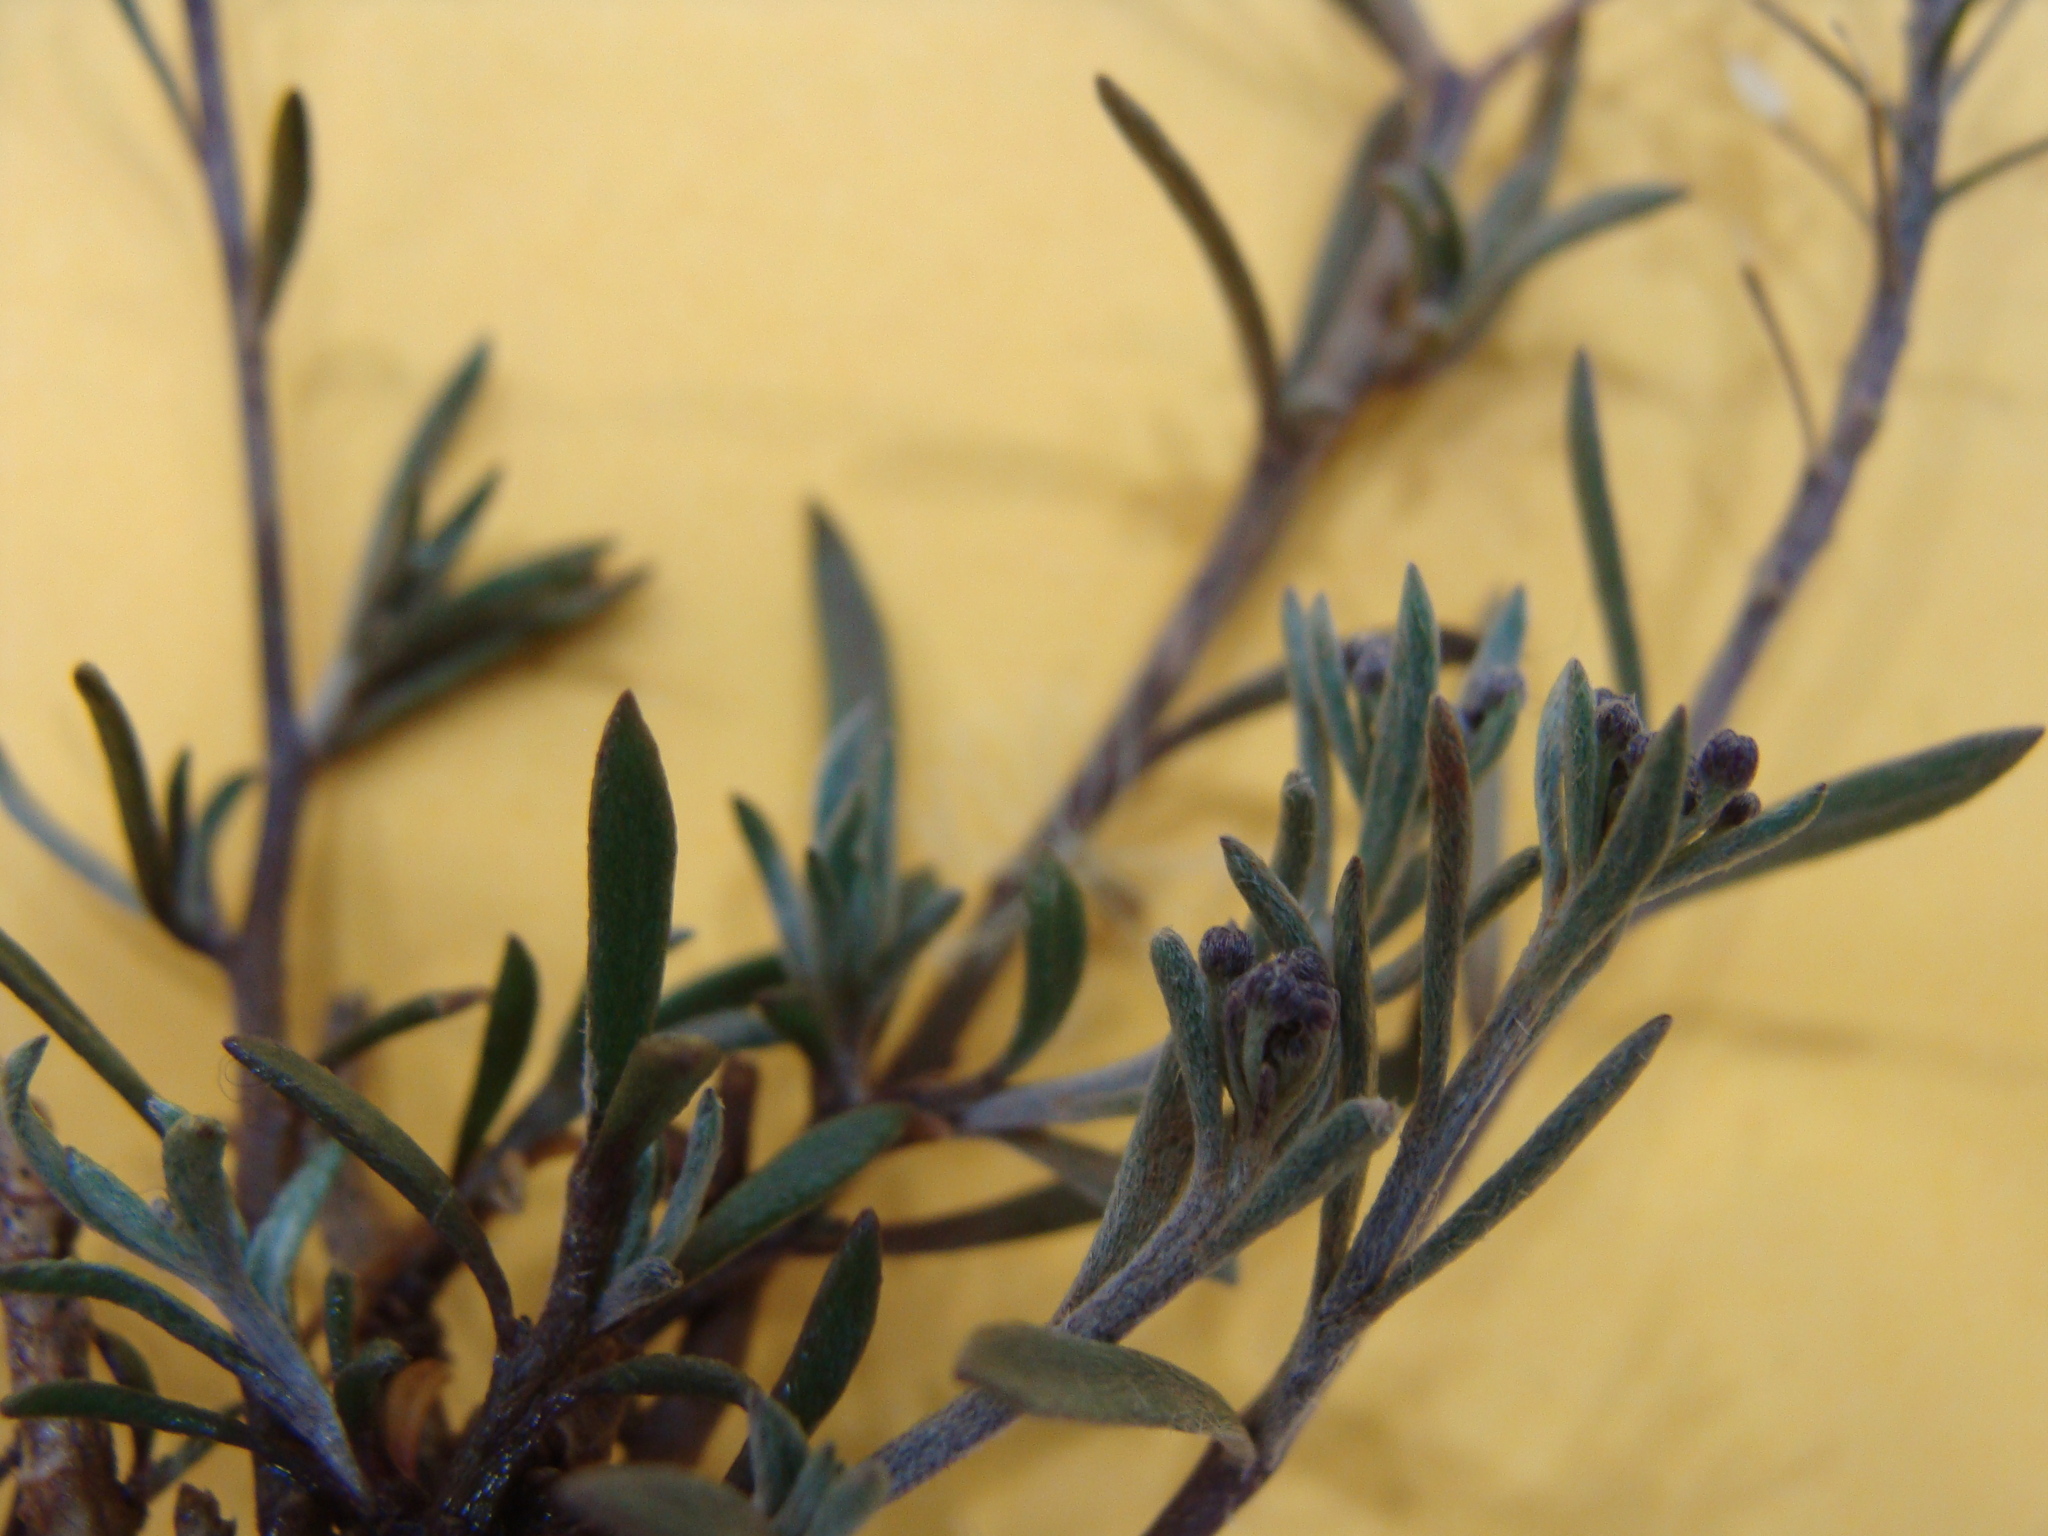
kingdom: Plantae
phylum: Tracheophyta
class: Magnoliopsida
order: Brassicales
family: Brassicaceae
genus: Lobularia
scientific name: Lobularia maritima
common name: Sweet alison
